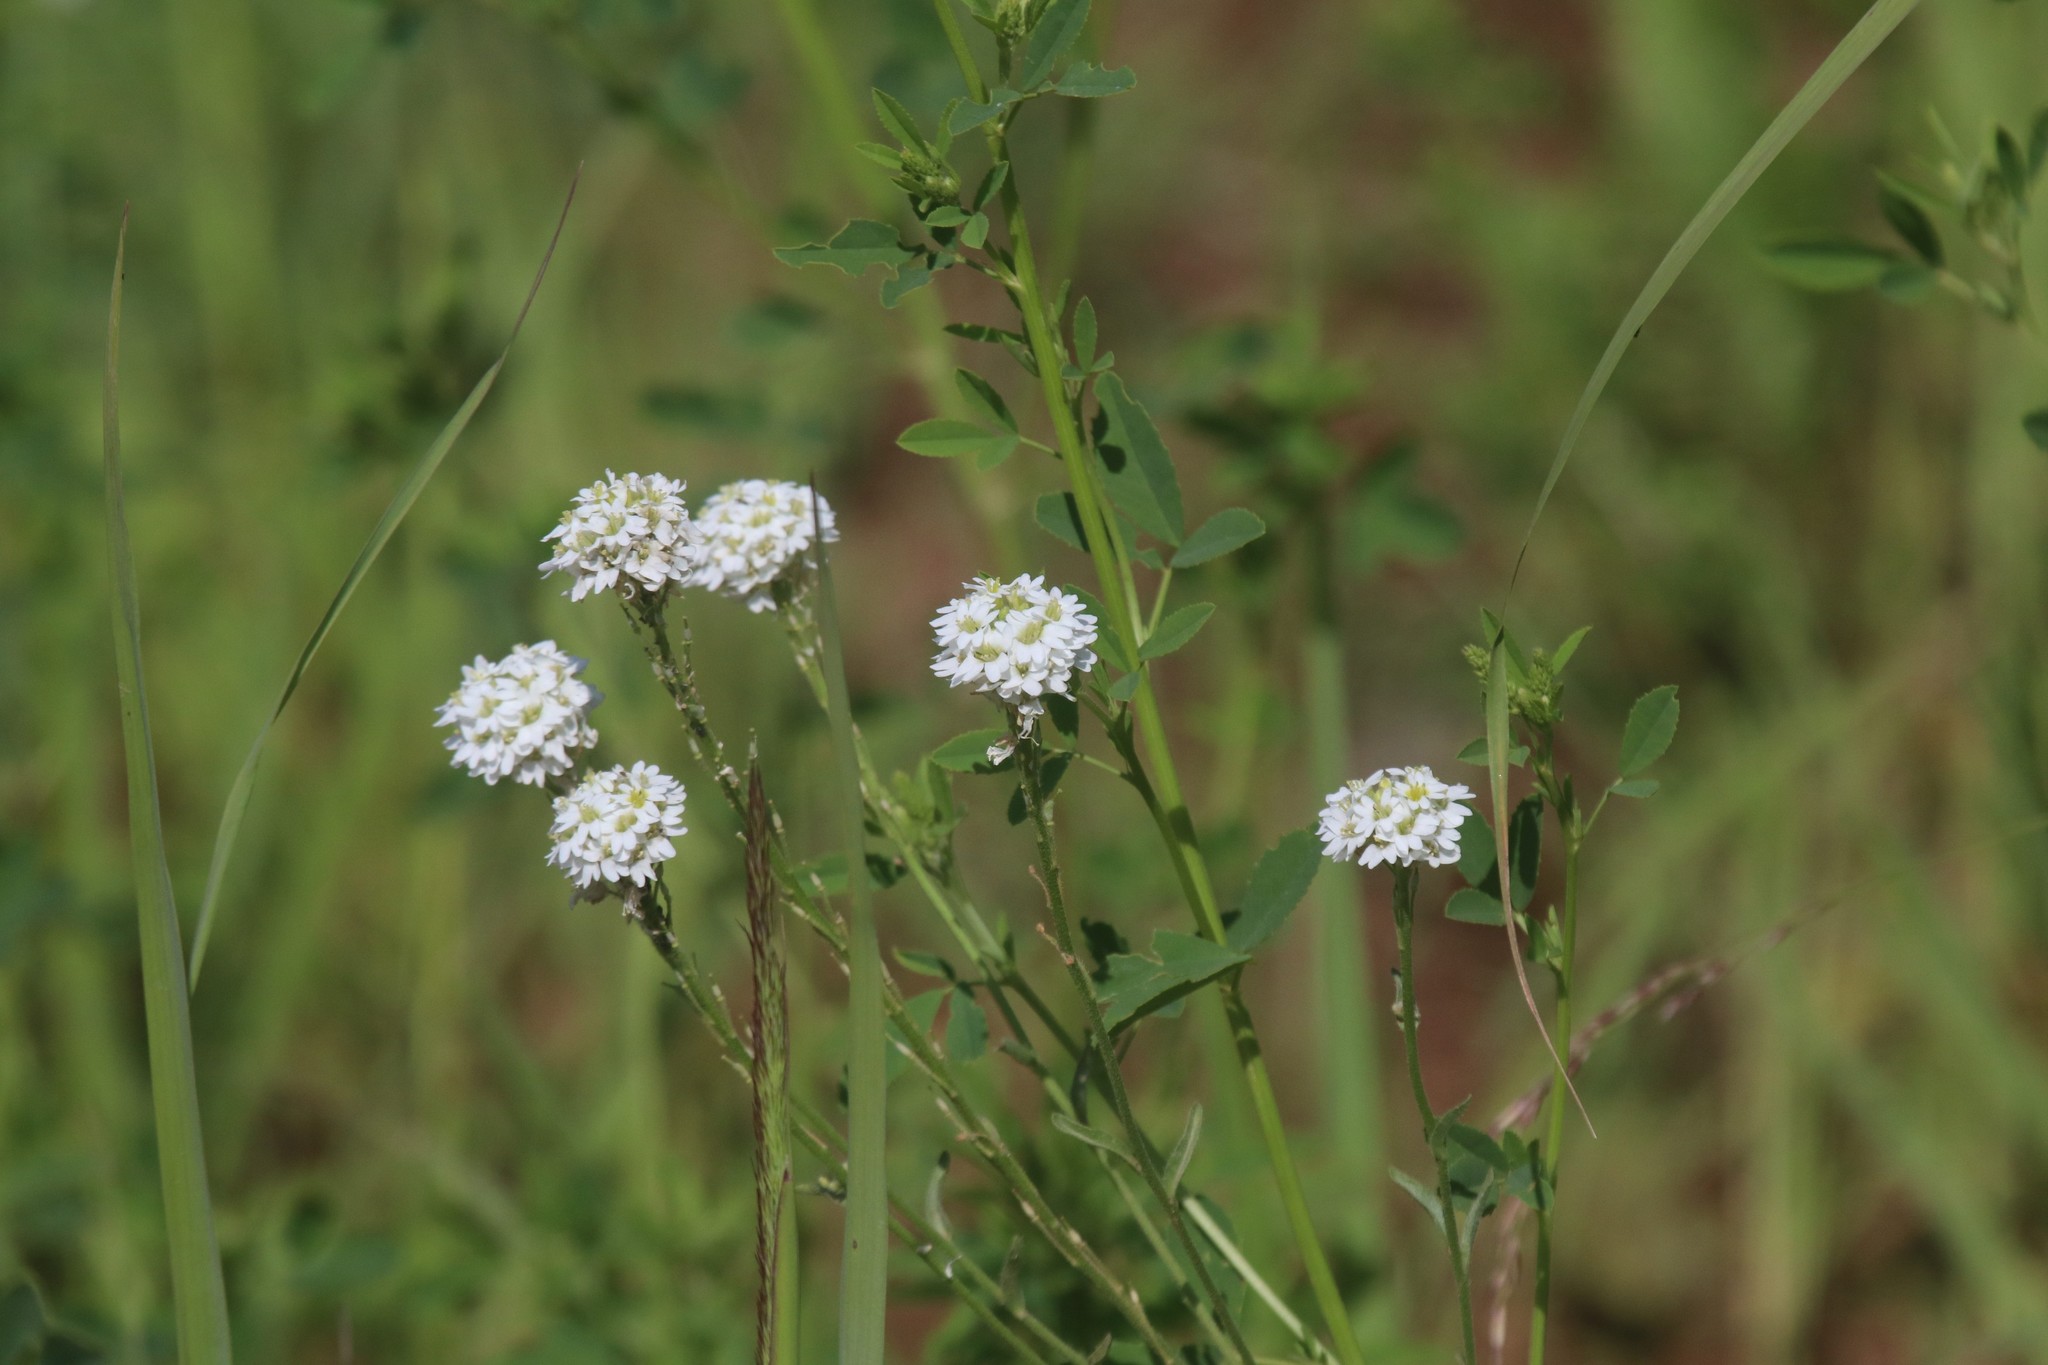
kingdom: Plantae
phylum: Tracheophyta
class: Magnoliopsida
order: Brassicales
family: Brassicaceae
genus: Berteroa
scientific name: Berteroa incana
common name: Hoary alison
